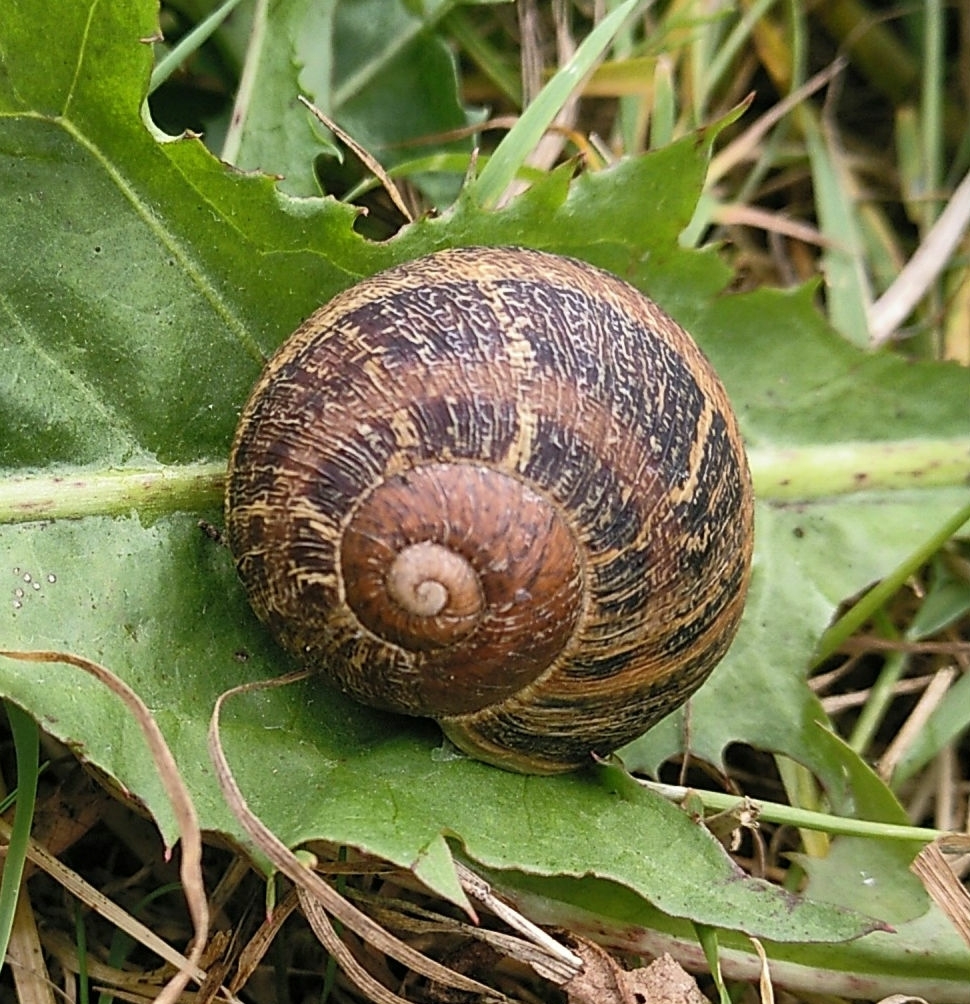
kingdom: Animalia
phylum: Mollusca
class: Gastropoda
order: Stylommatophora
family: Helicidae
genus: Cornu
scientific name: Cornu aspersum
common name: Brown garden snail
